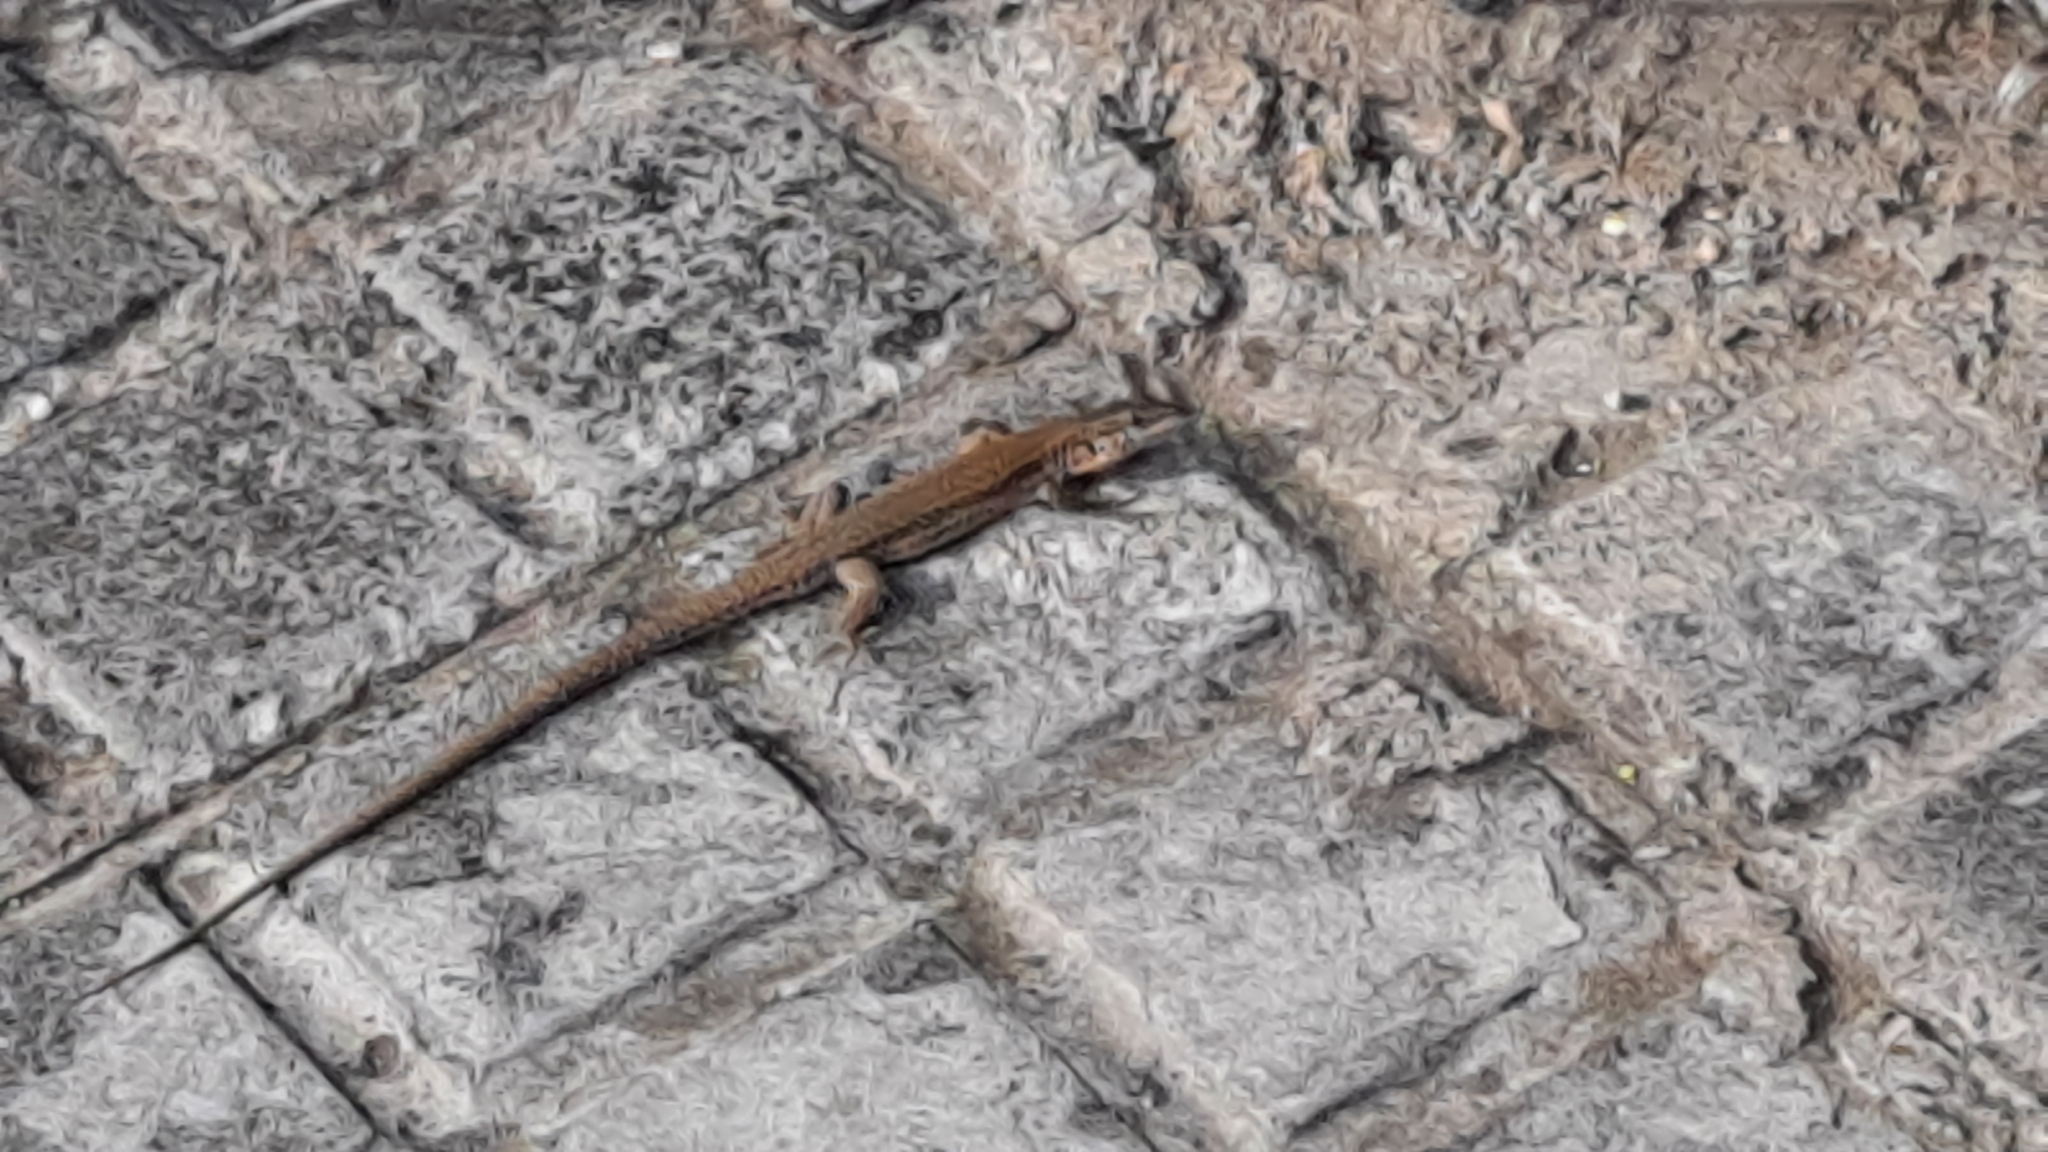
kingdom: Animalia
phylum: Chordata
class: Squamata
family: Lacertidae
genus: Podarcis
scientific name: Podarcis liolepis
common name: Catalonian wall lizard
